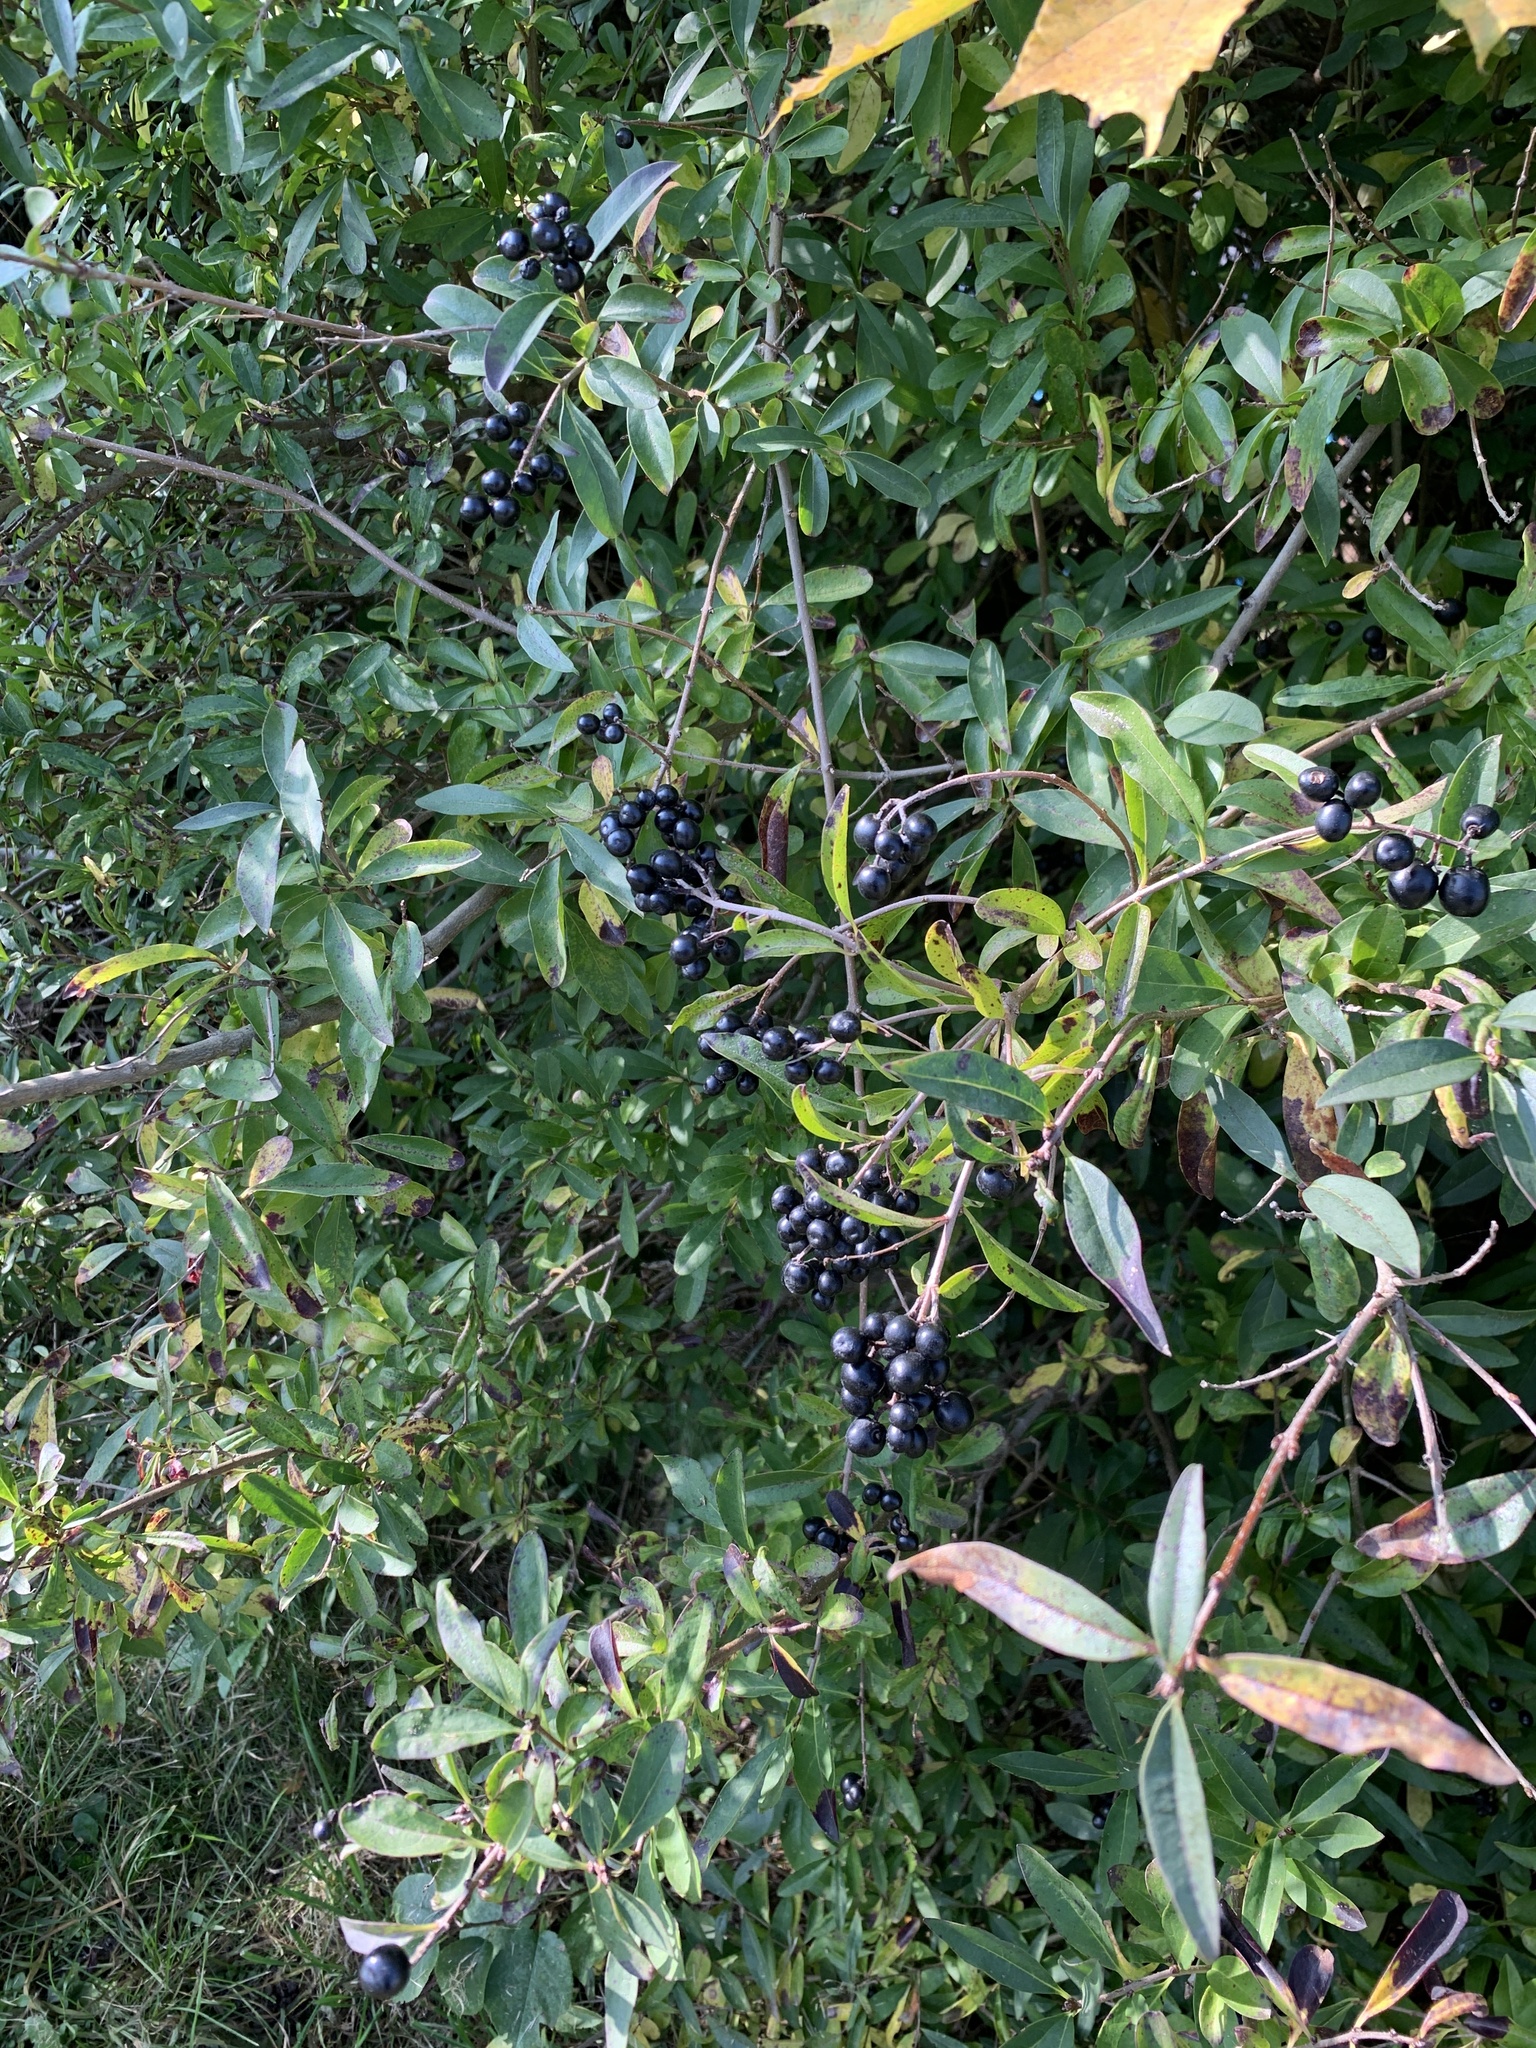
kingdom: Plantae
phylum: Tracheophyta
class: Magnoliopsida
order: Lamiales
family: Oleaceae
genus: Ligustrum
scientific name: Ligustrum vulgare
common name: Wild privet
